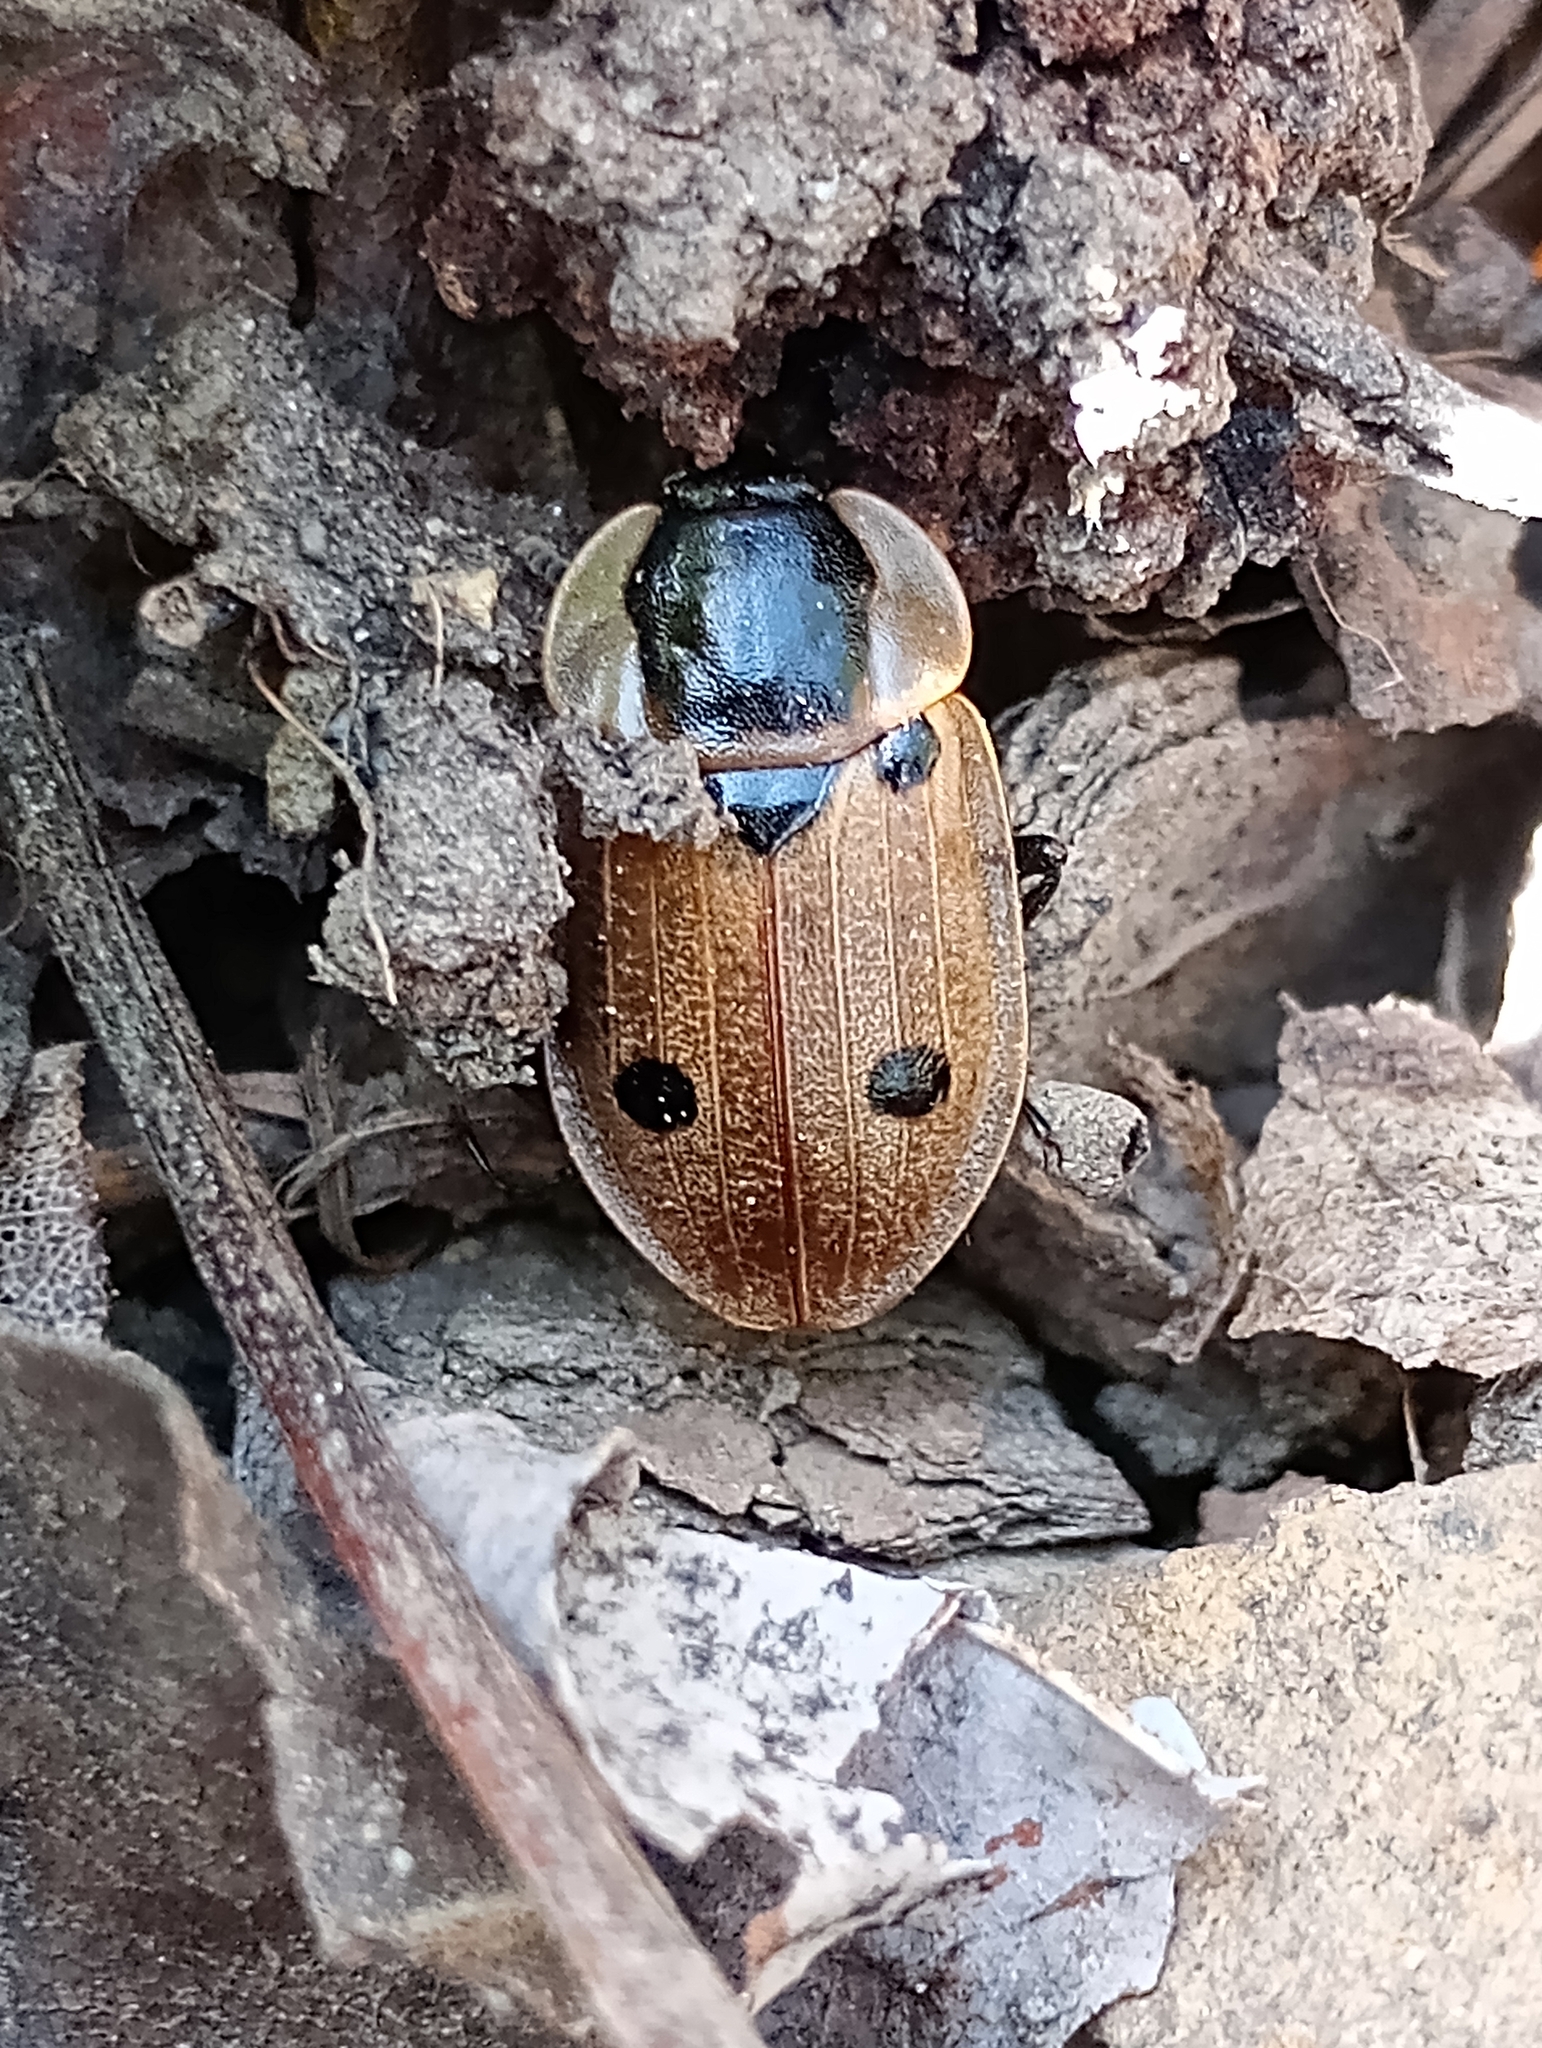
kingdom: Animalia
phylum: Arthropoda
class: Insecta
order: Coleoptera
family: Staphylinidae
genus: Dendroxena
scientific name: Dendroxena quadrimaculata
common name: Carrion beetle
